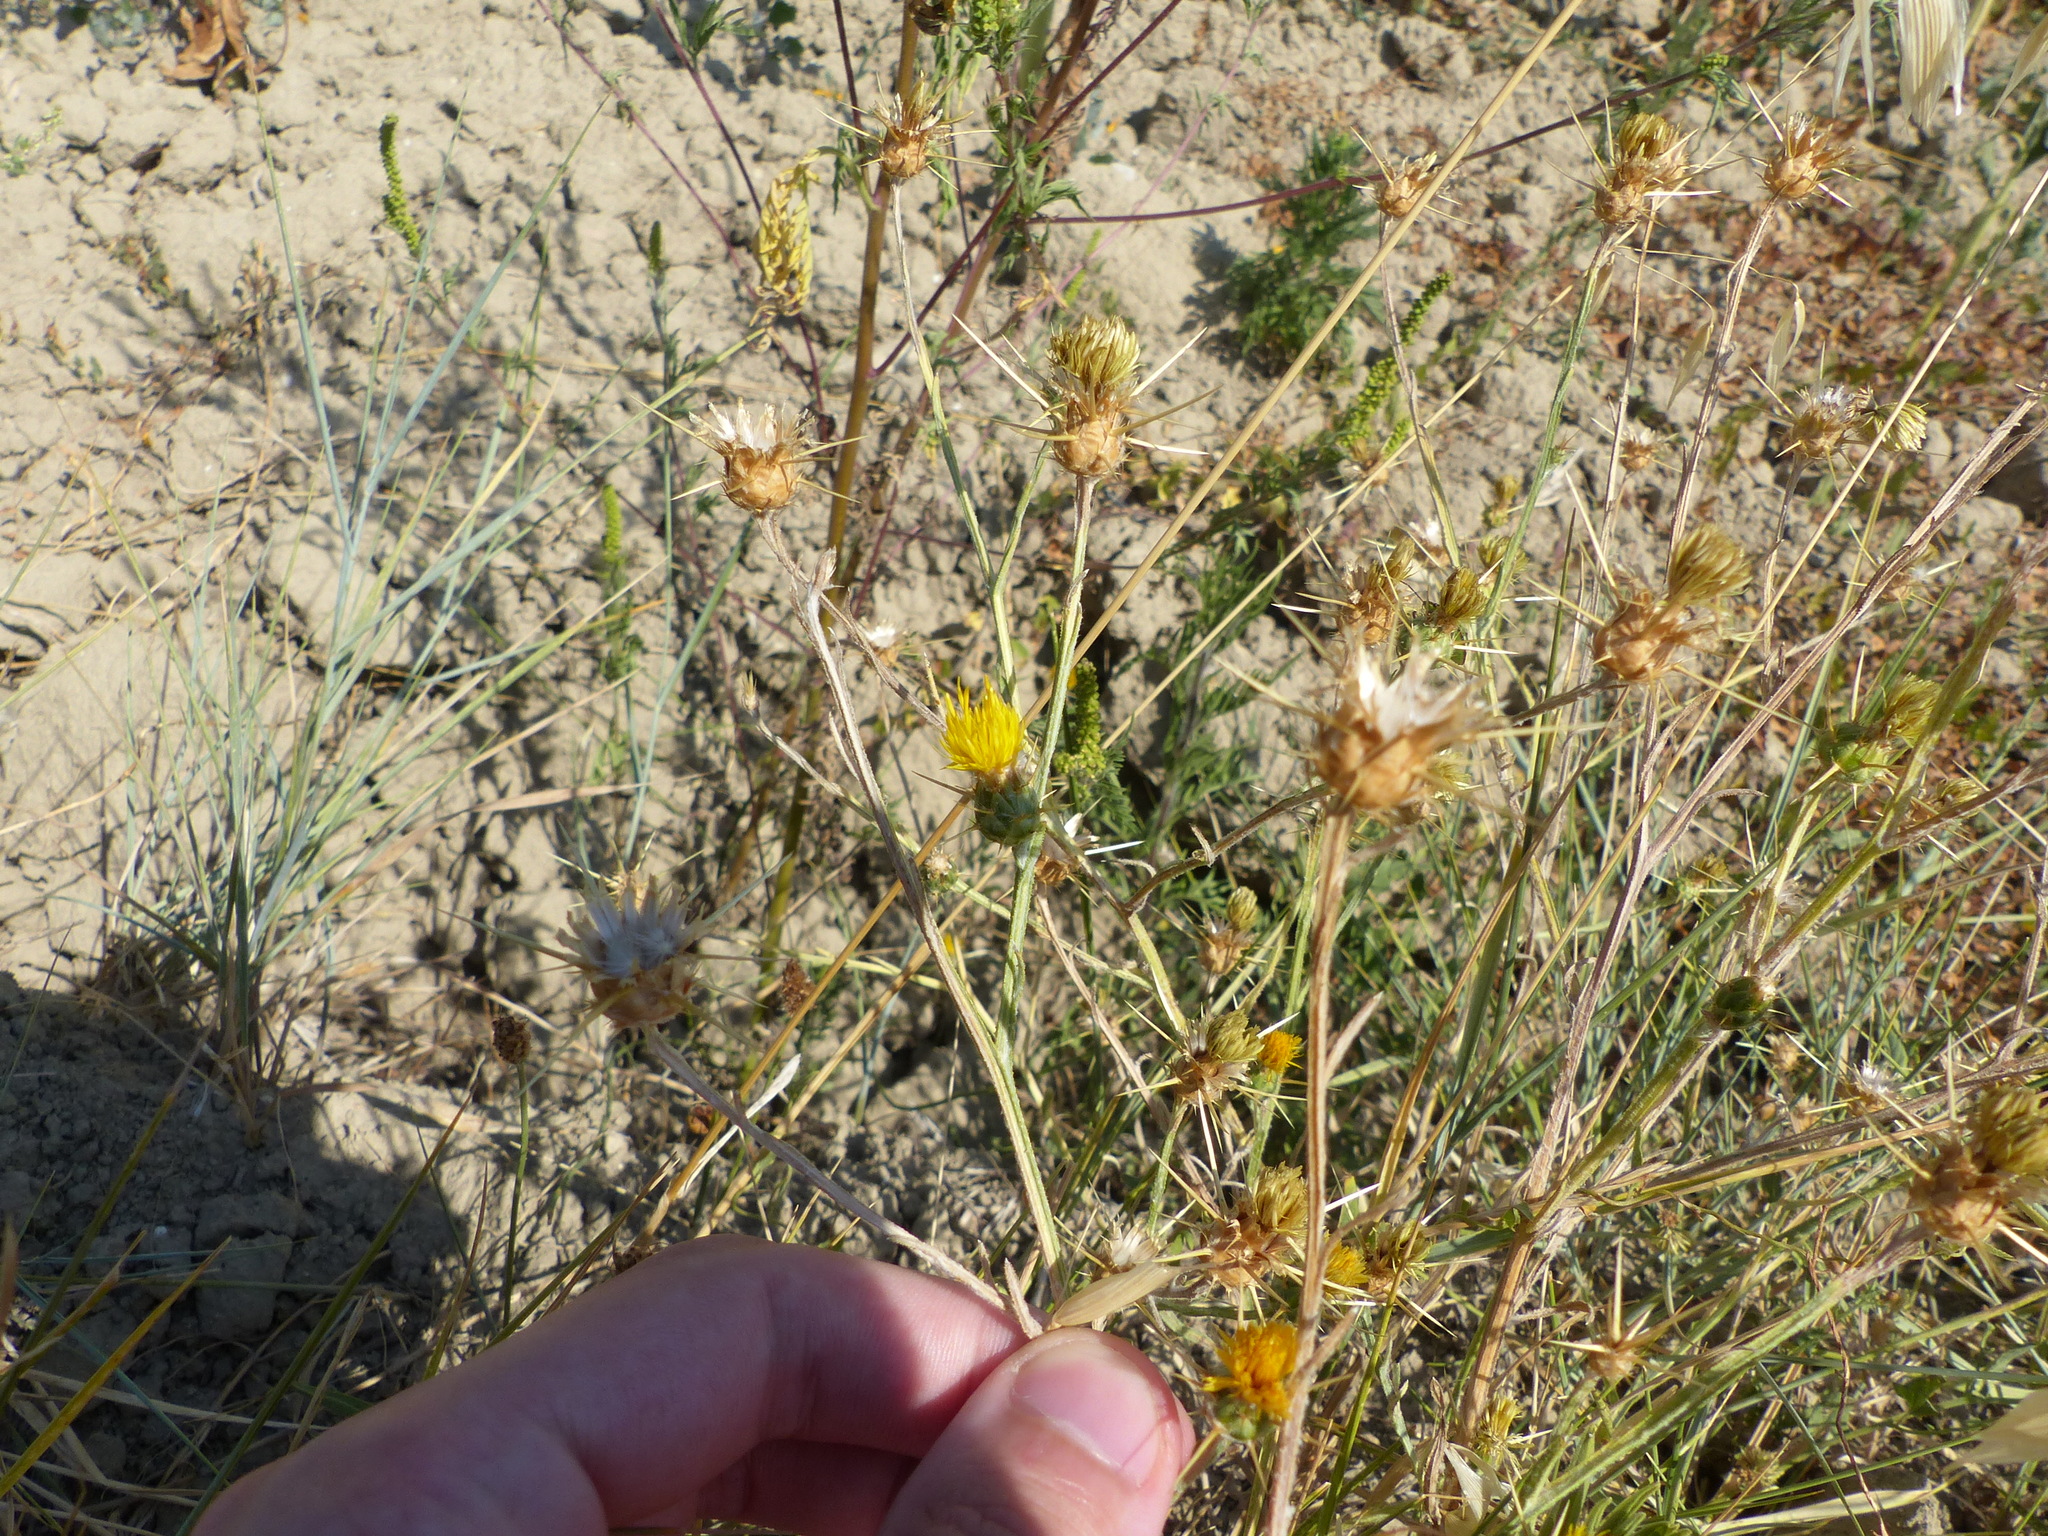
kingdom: Plantae
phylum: Tracheophyta
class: Magnoliopsida
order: Asterales
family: Asteraceae
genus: Centaurea
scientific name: Centaurea solstitialis
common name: Yellow star-thistle
